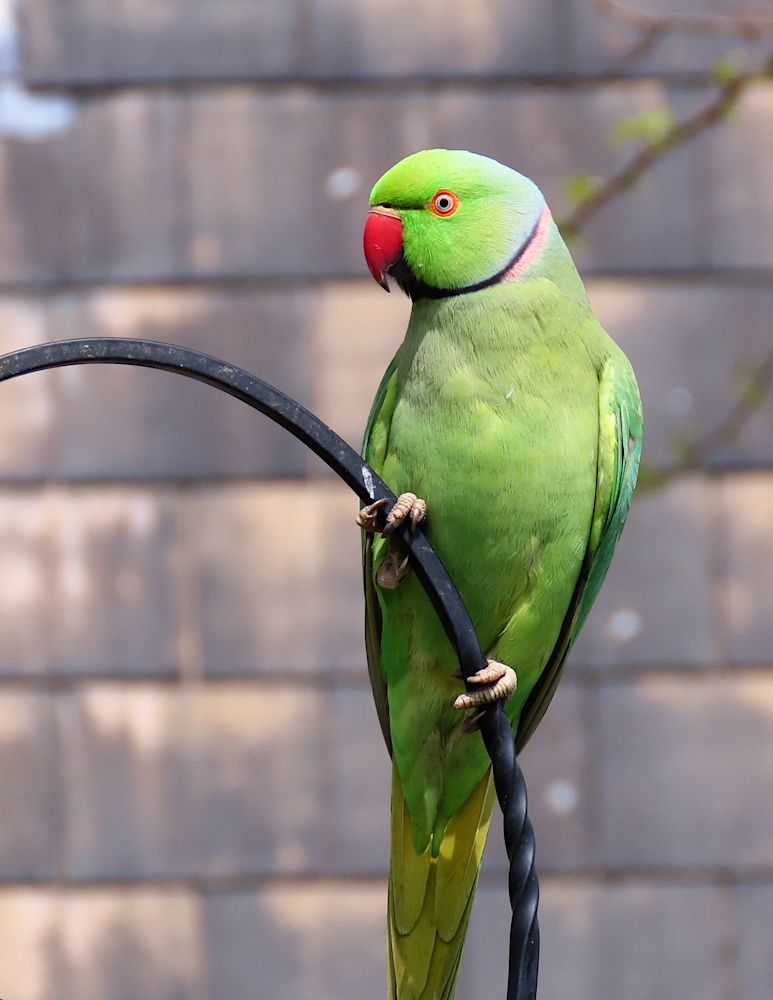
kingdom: Animalia
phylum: Chordata
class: Aves
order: Psittaciformes
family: Psittacidae
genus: Psittacula
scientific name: Psittacula krameri
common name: Rose-ringed parakeet
